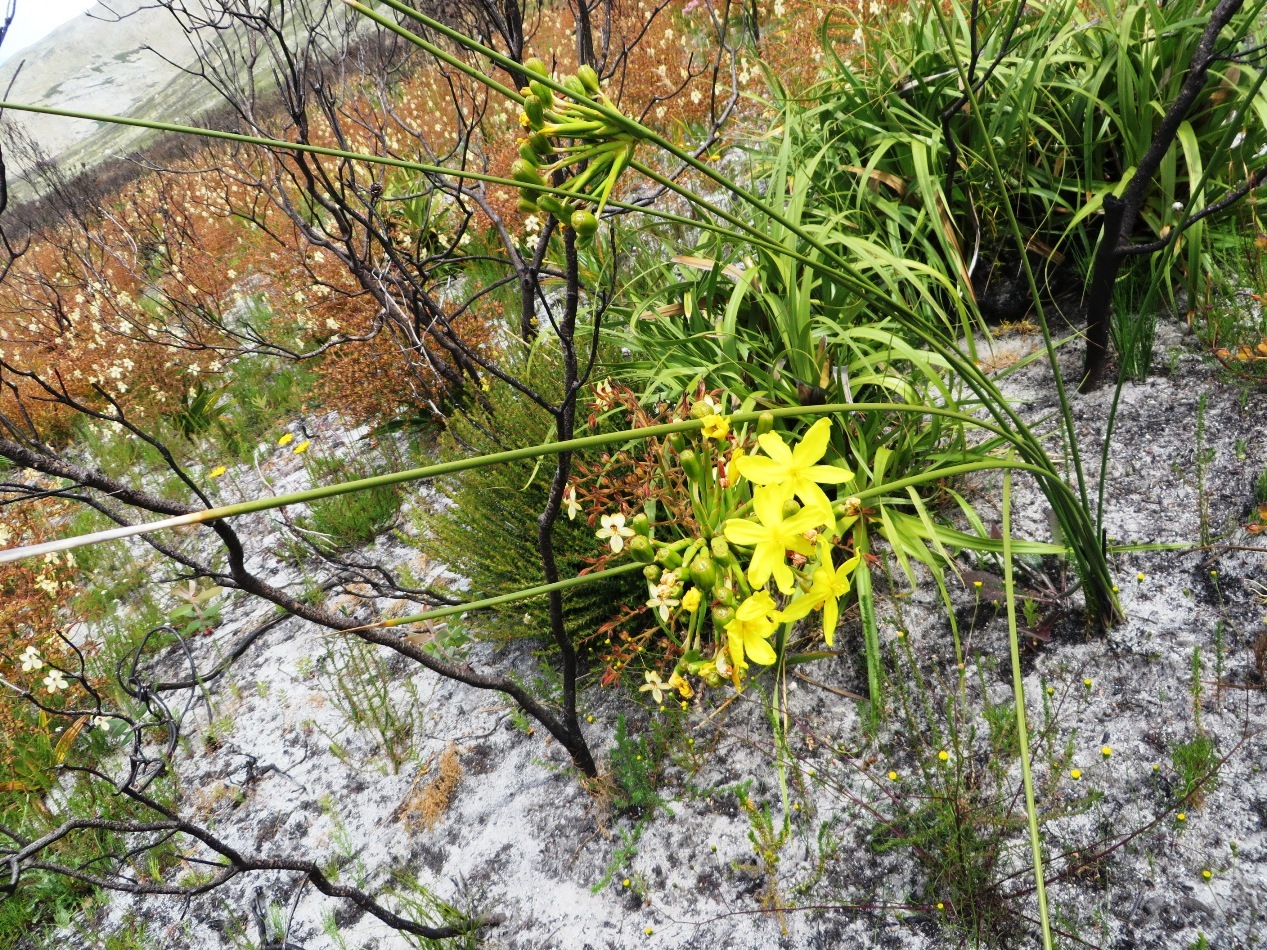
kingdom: Plantae
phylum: Tracheophyta
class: Liliopsida
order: Asparagales
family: Iridaceae
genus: Bobartia
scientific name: Bobartia indica
